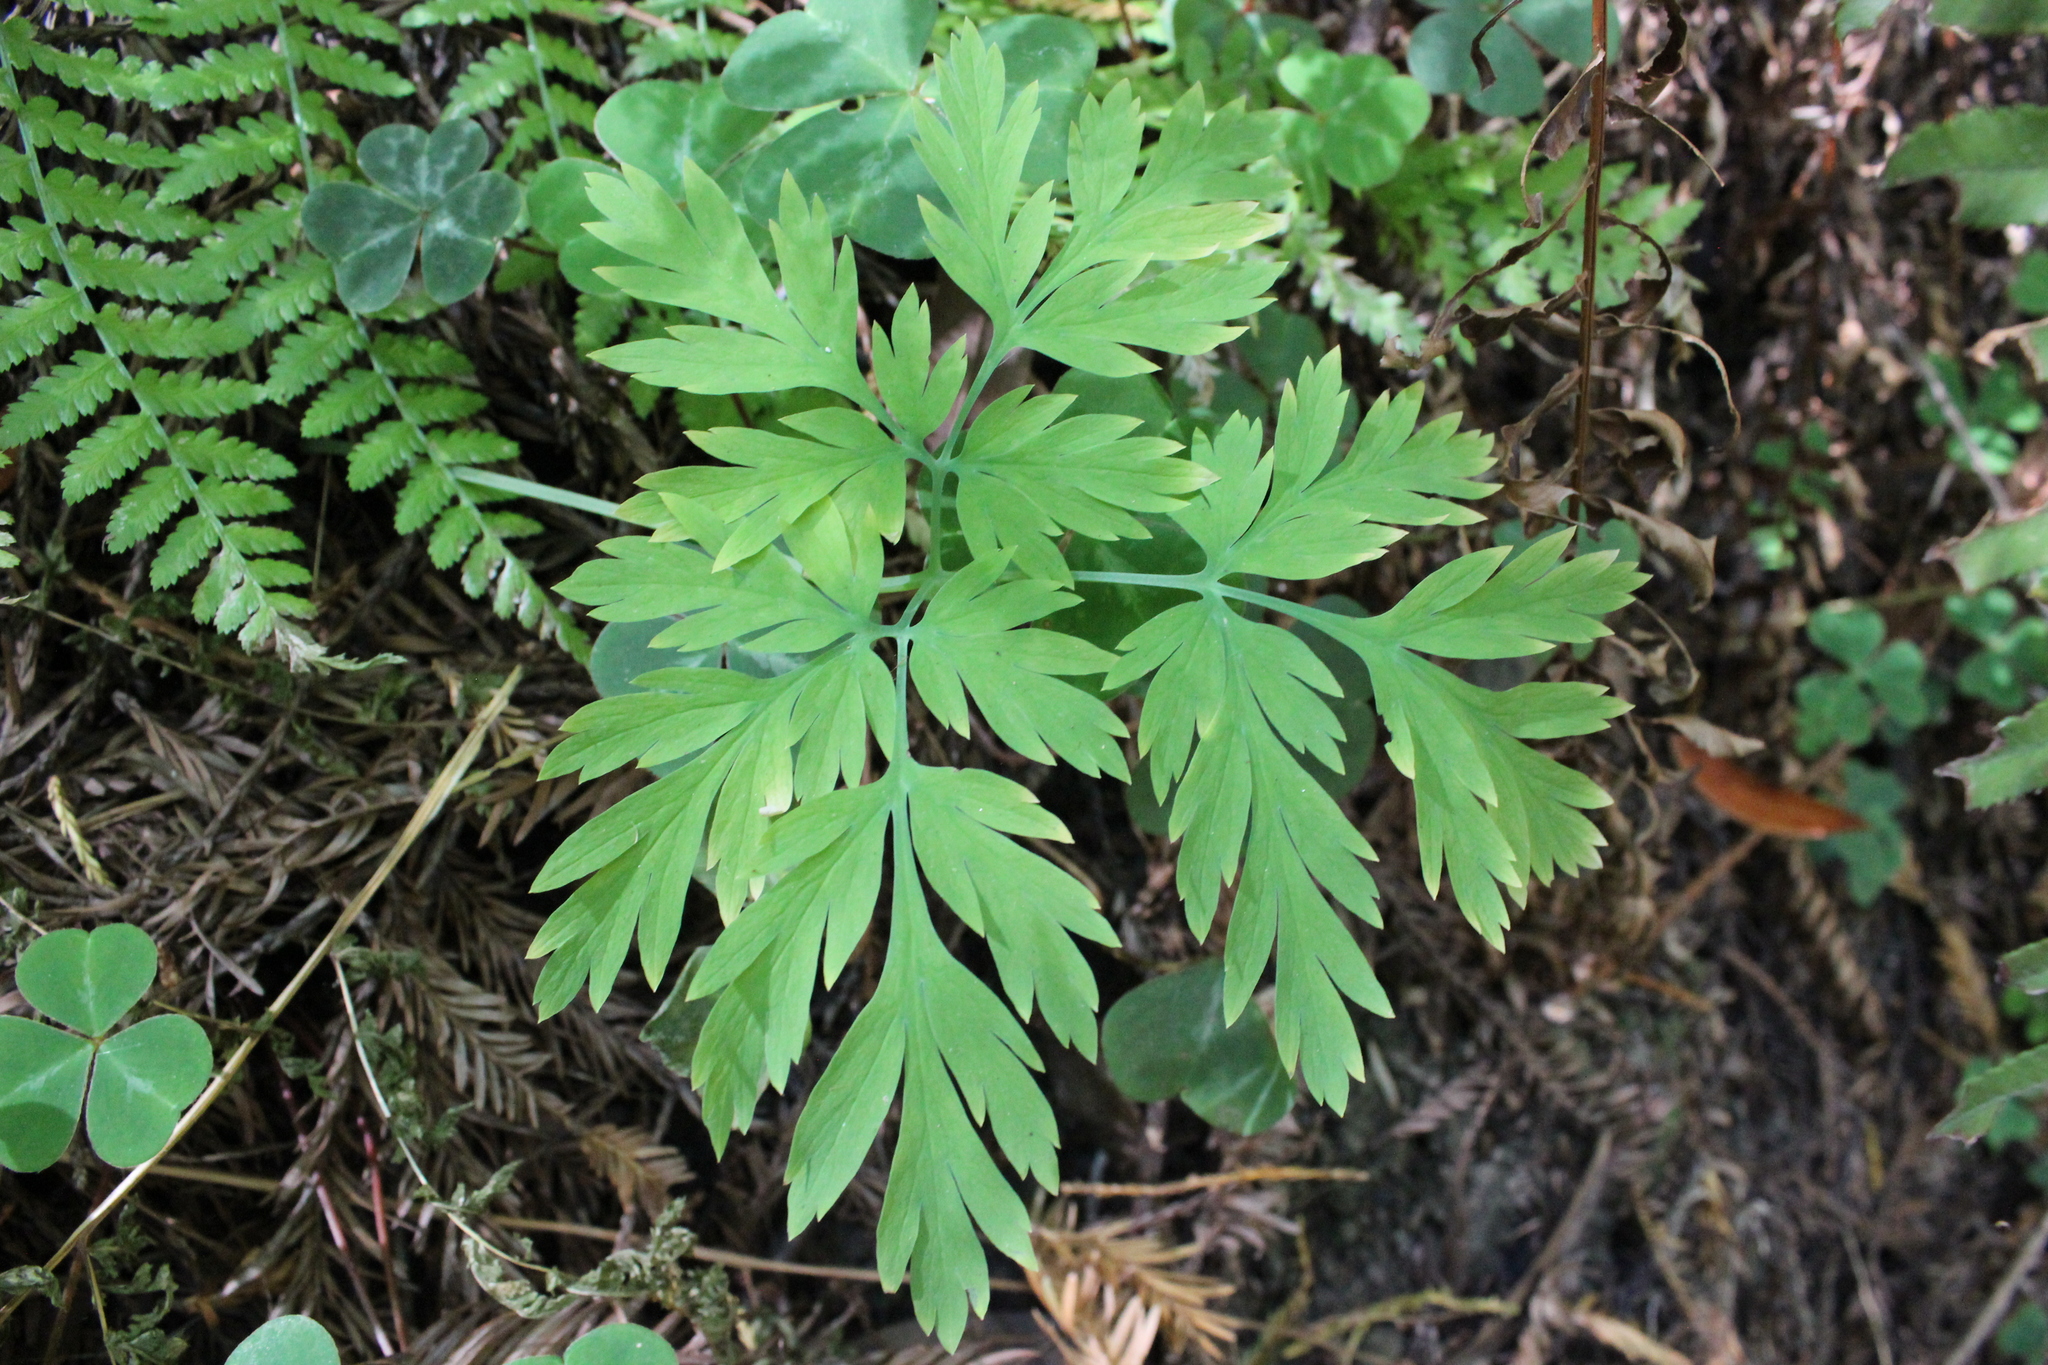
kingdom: Plantae
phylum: Tracheophyta
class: Magnoliopsida
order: Ranunculales
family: Papaveraceae
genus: Dicentra
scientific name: Dicentra formosa
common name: Bleeding-heart
